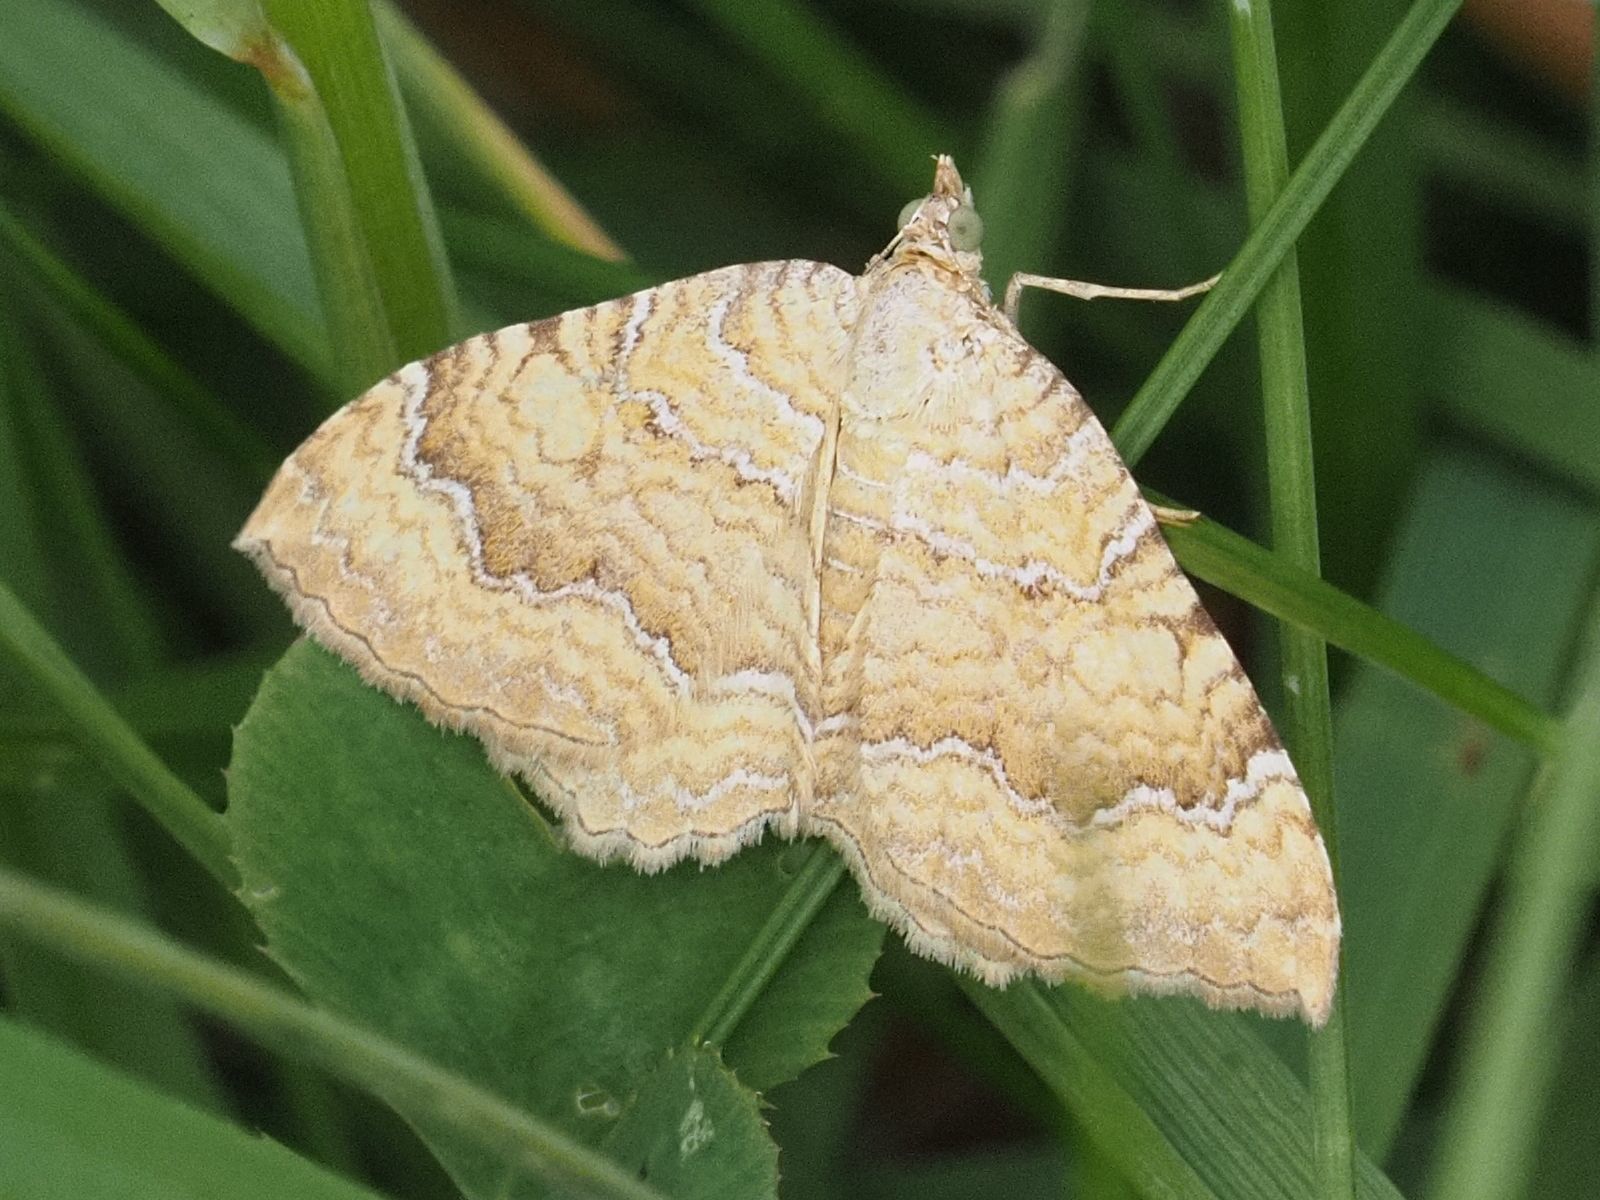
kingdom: Animalia
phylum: Arthropoda
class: Insecta
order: Lepidoptera
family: Geometridae
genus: Camptogramma
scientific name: Camptogramma bilineata
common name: Yellow shell
